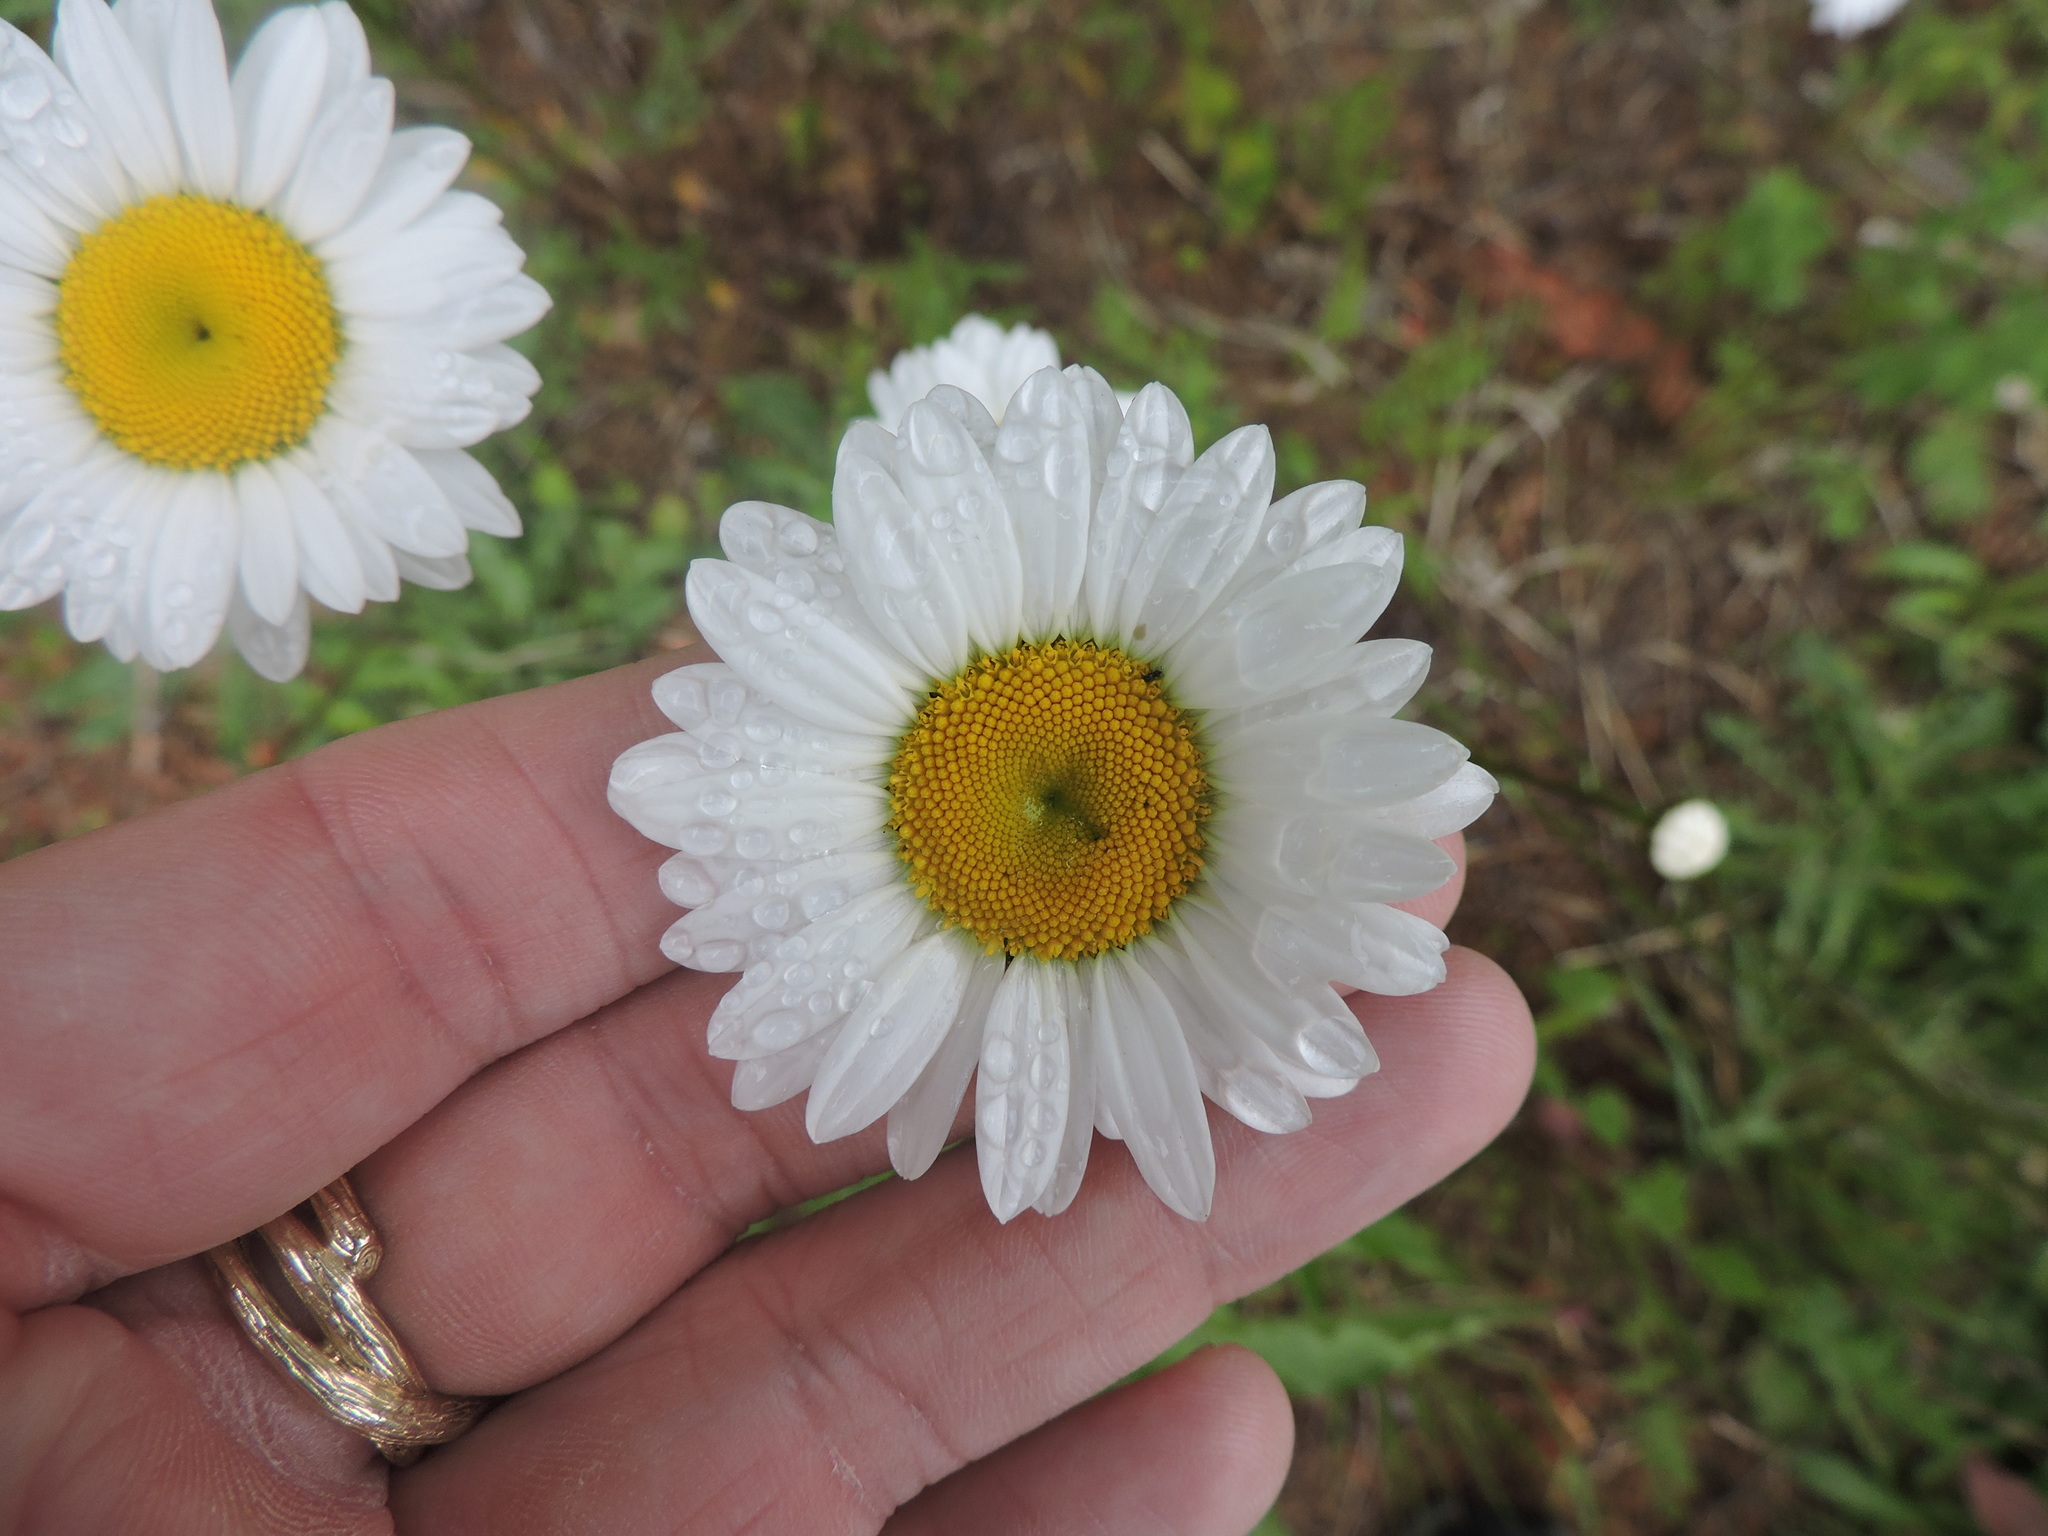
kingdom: Plantae
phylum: Tracheophyta
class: Magnoliopsida
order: Asterales
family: Asteraceae
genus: Leucanthemum
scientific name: Leucanthemum vulgare
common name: Oxeye daisy
